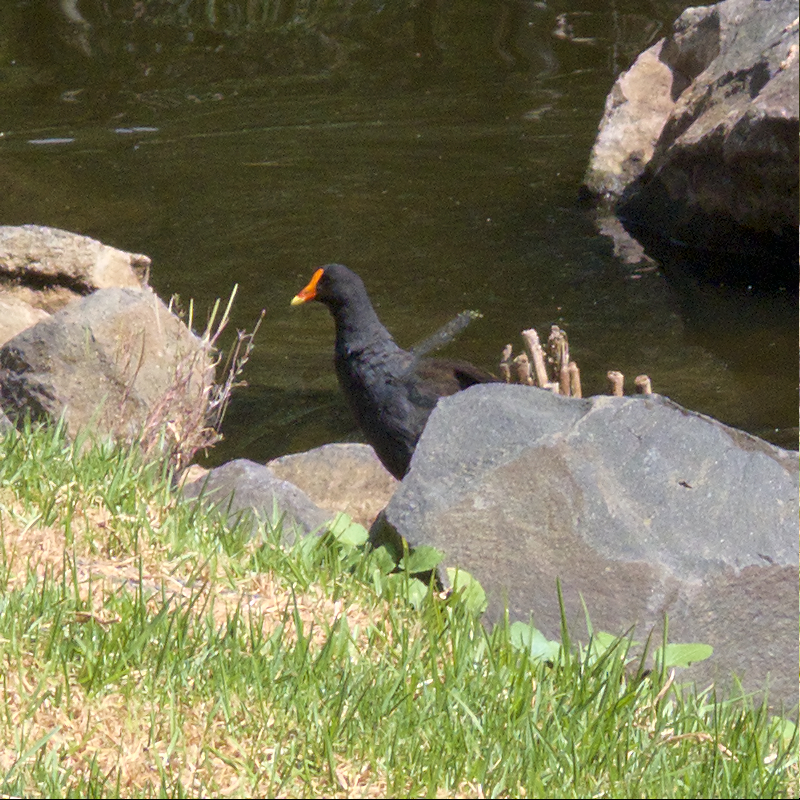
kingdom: Animalia
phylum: Chordata
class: Aves
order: Gruiformes
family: Rallidae
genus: Gallinula
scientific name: Gallinula tenebrosa
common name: Dusky moorhen
